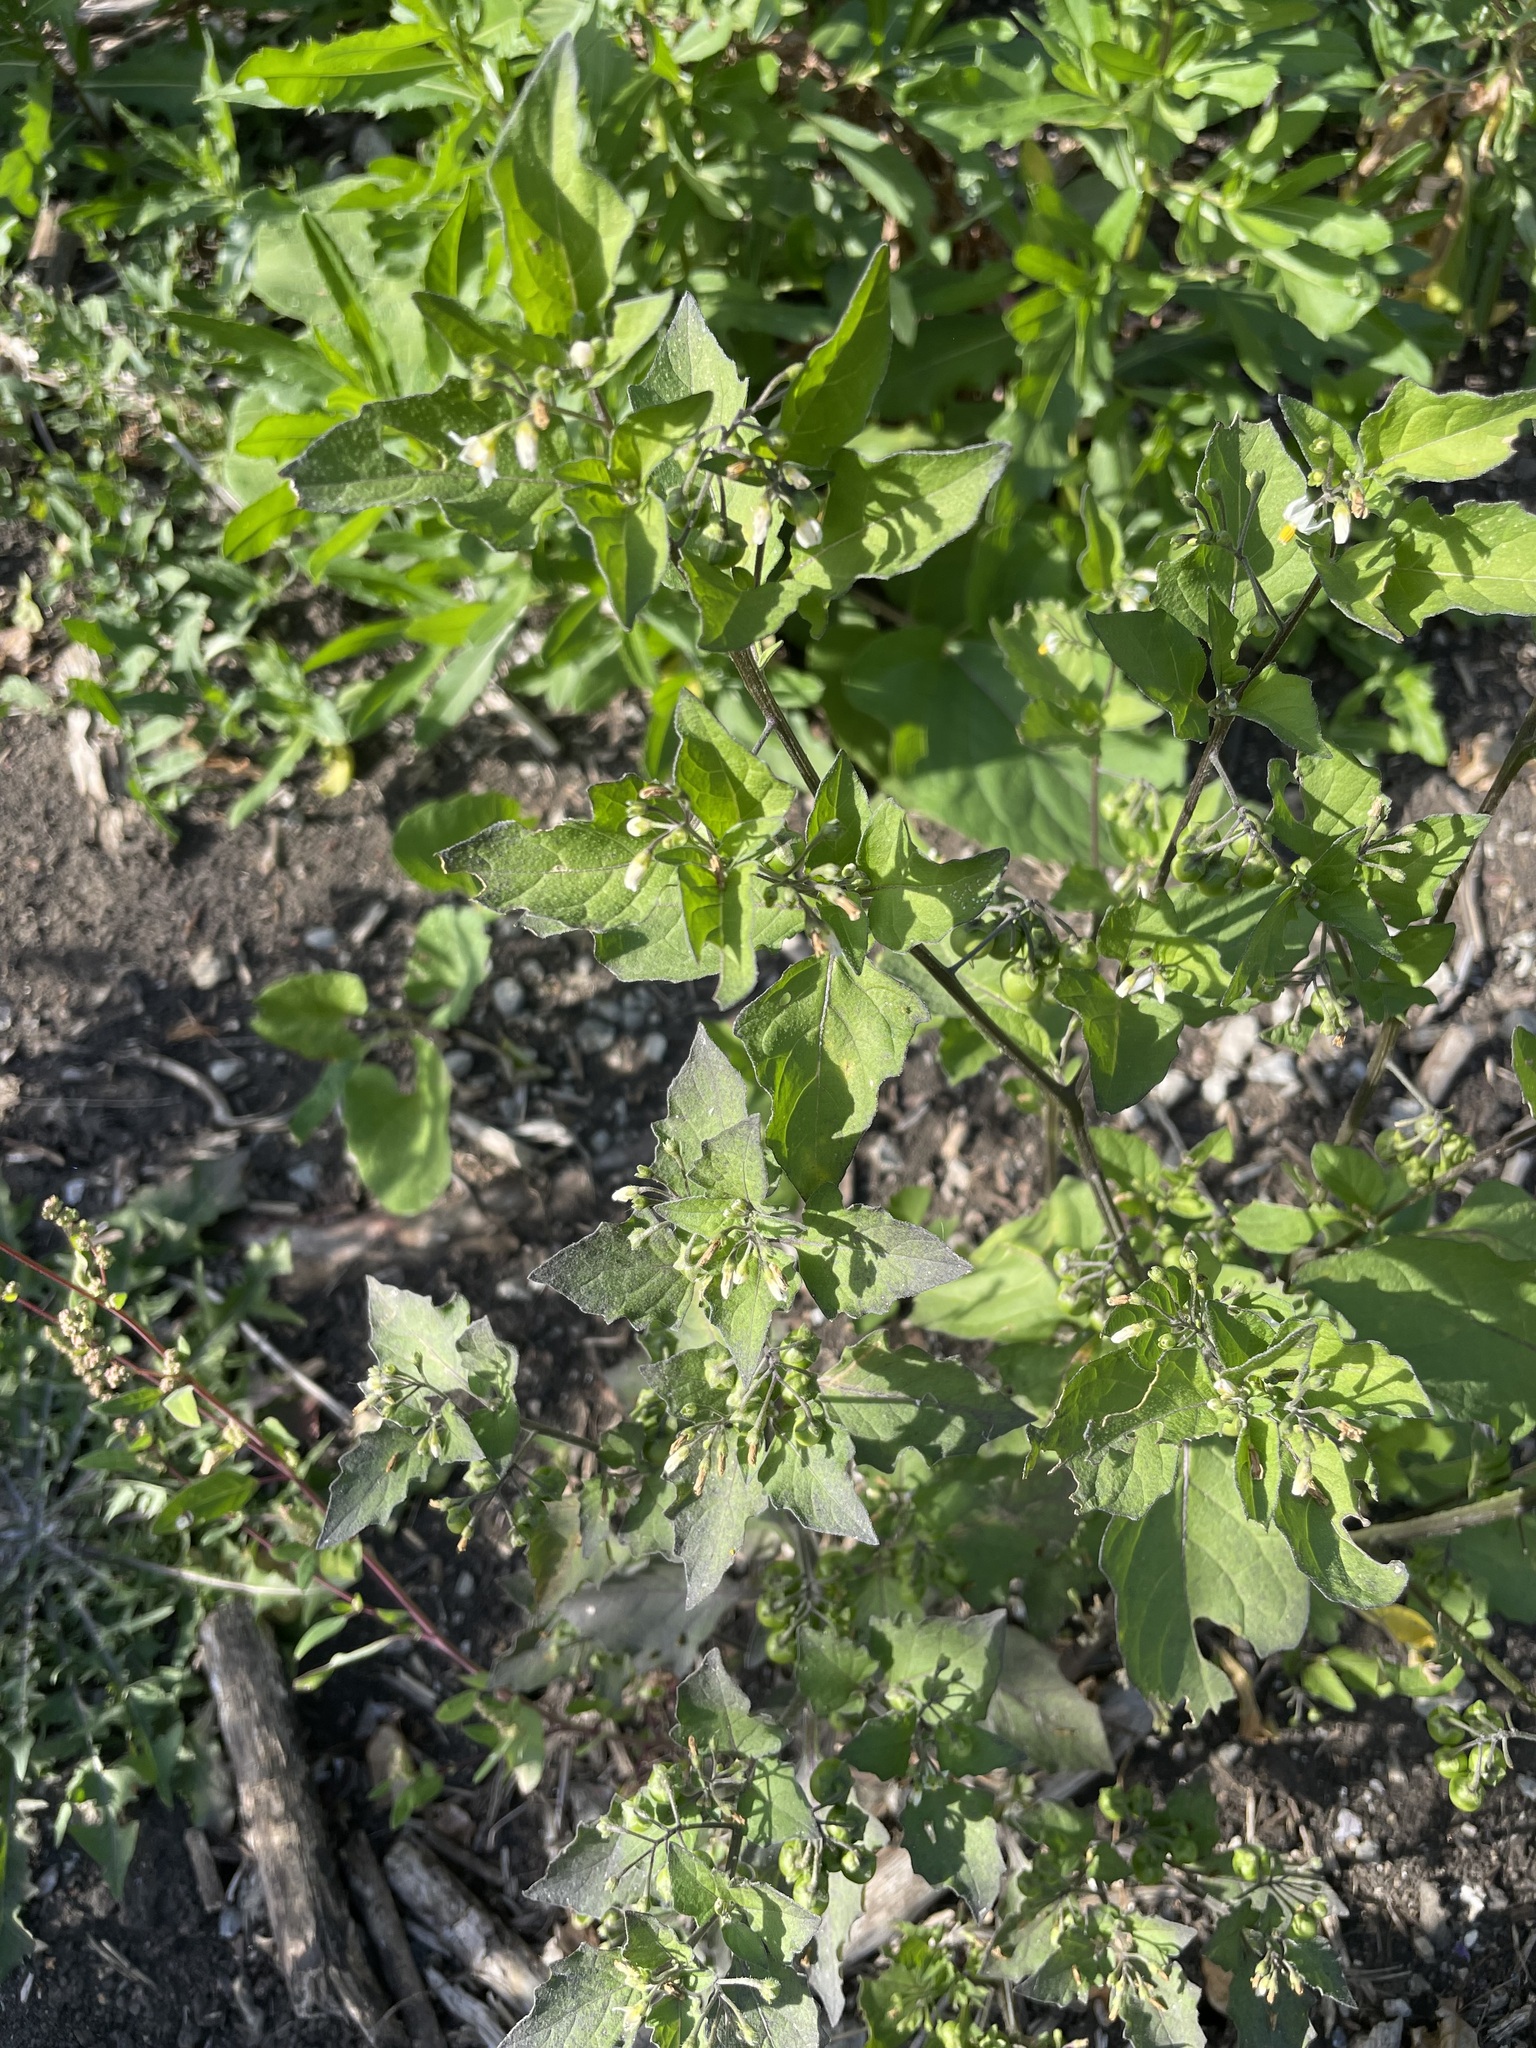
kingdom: Plantae
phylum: Tracheophyta
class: Magnoliopsida
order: Solanales
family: Solanaceae
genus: Solanum
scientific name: Solanum nigrum
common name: Black nightshade
